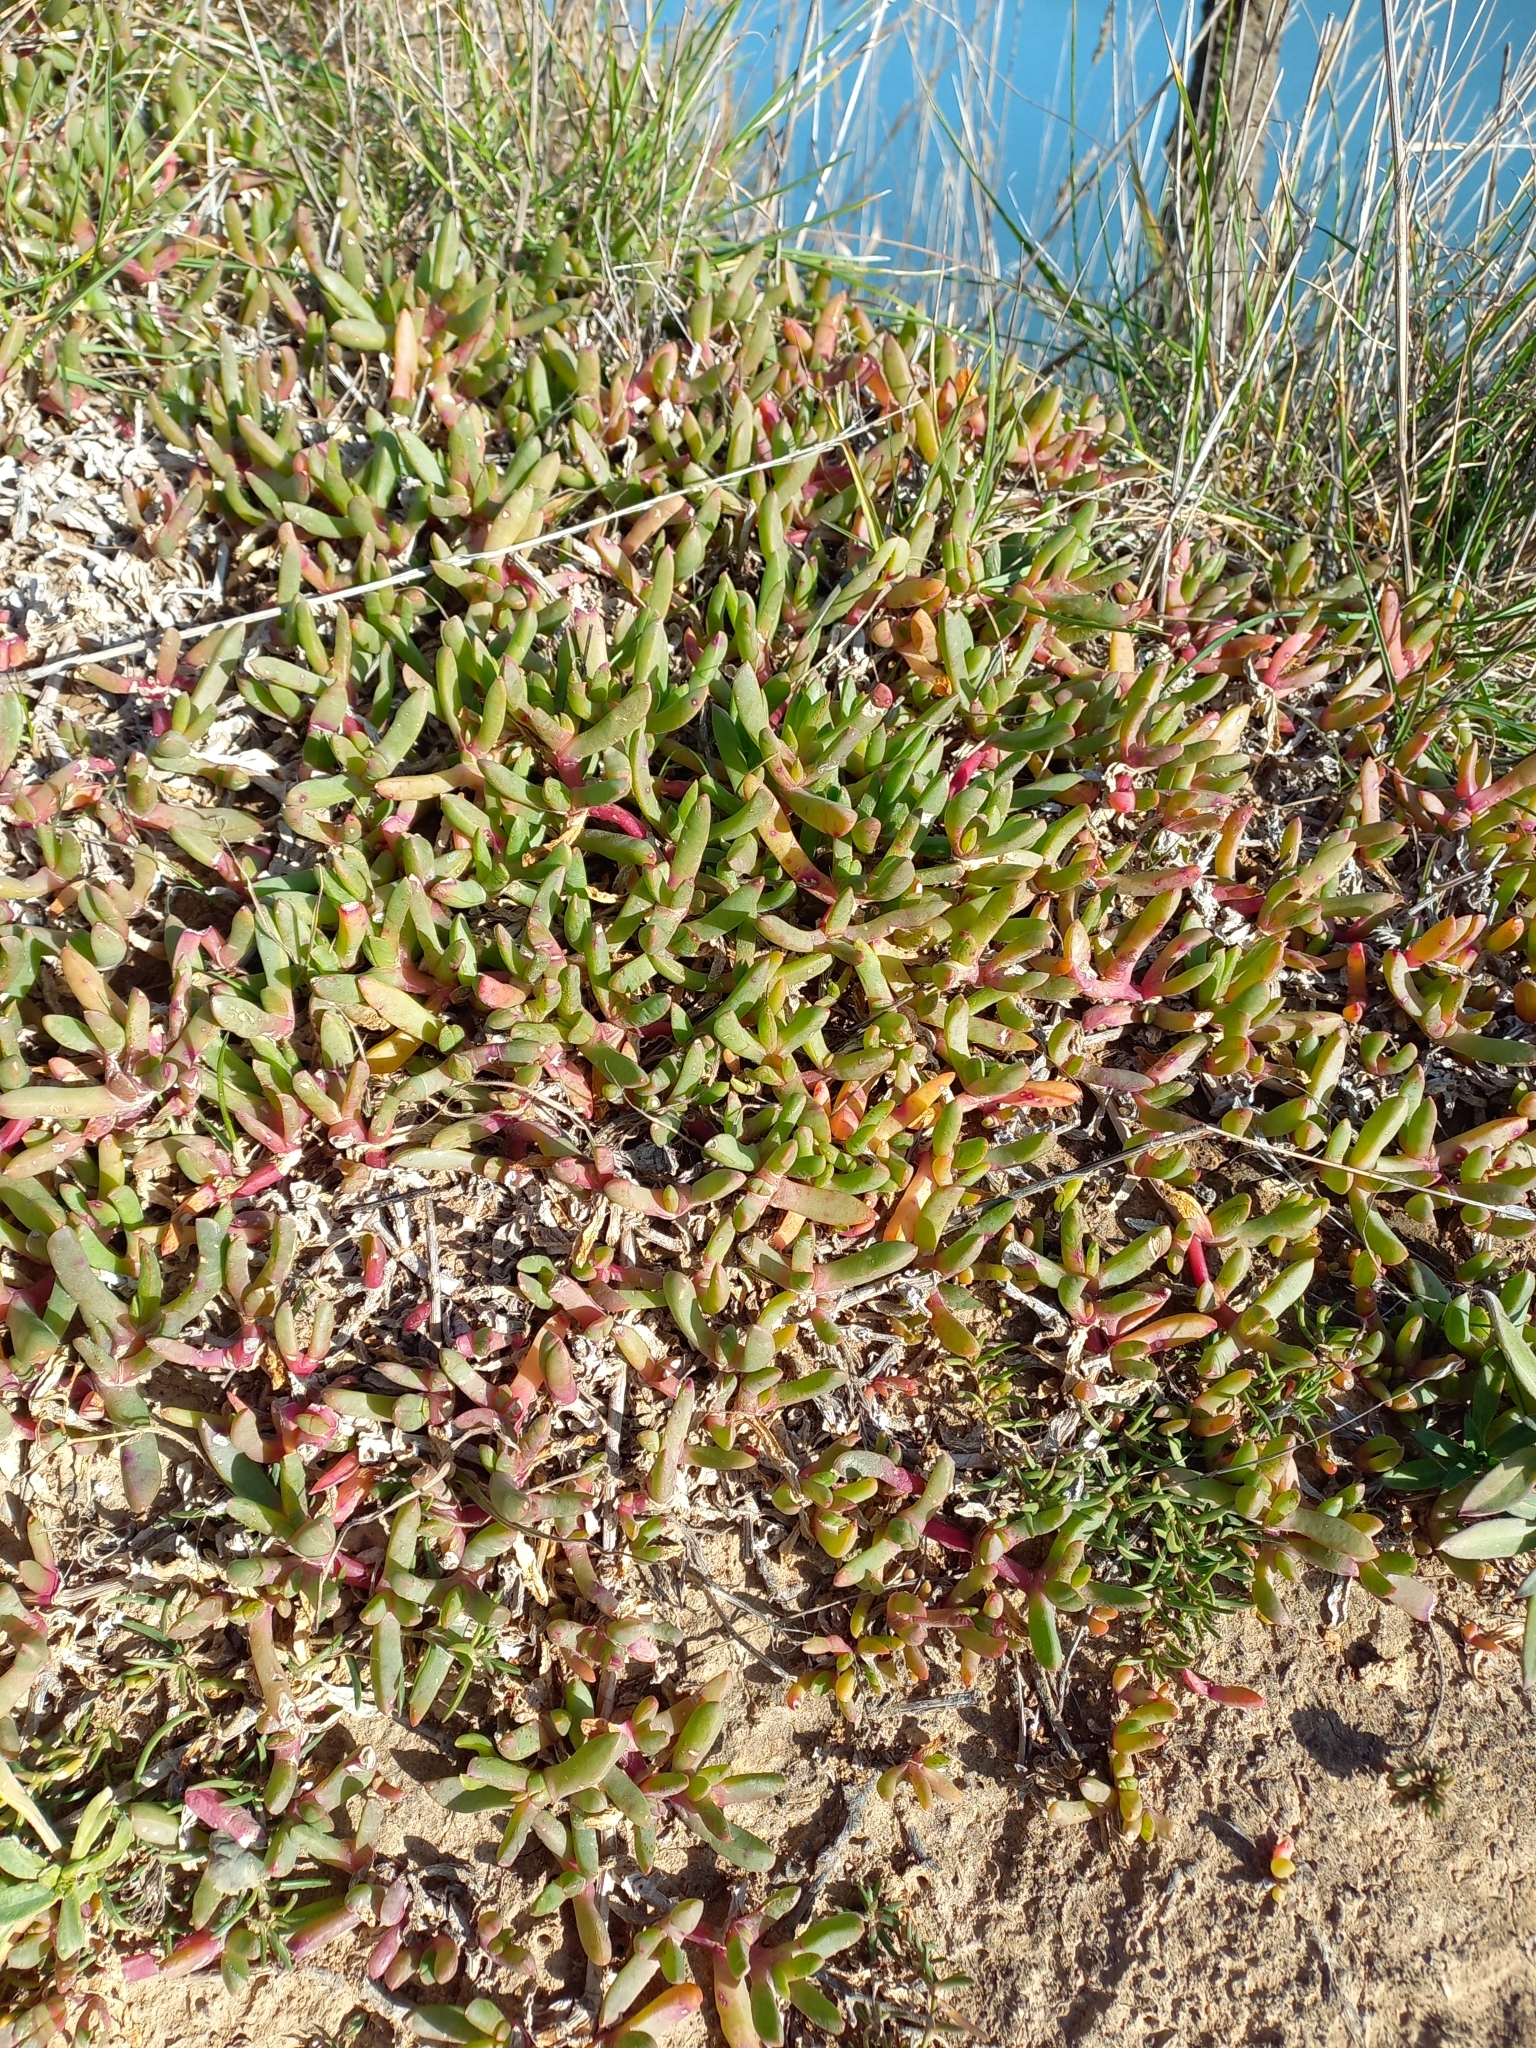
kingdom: Plantae
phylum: Tracheophyta
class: Magnoliopsida
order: Caryophyllales
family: Aizoaceae
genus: Disphyma
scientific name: Disphyma australe
